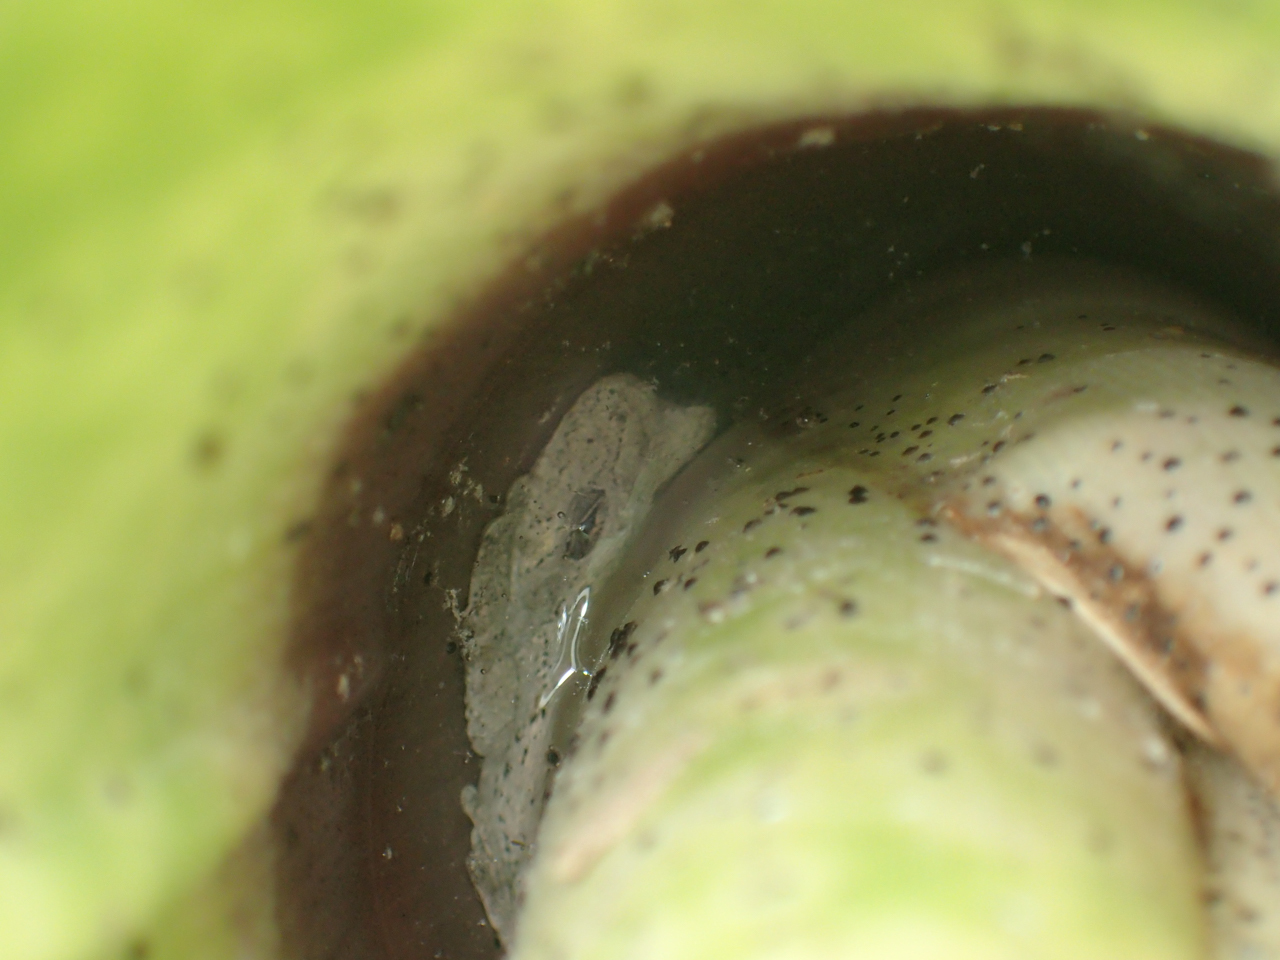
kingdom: Animalia
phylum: Chordata
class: Amphibia
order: Anura
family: Hylidae
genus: Dryophytes
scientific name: Dryophytes chrysoscelis
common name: Cope's gray treefrog
